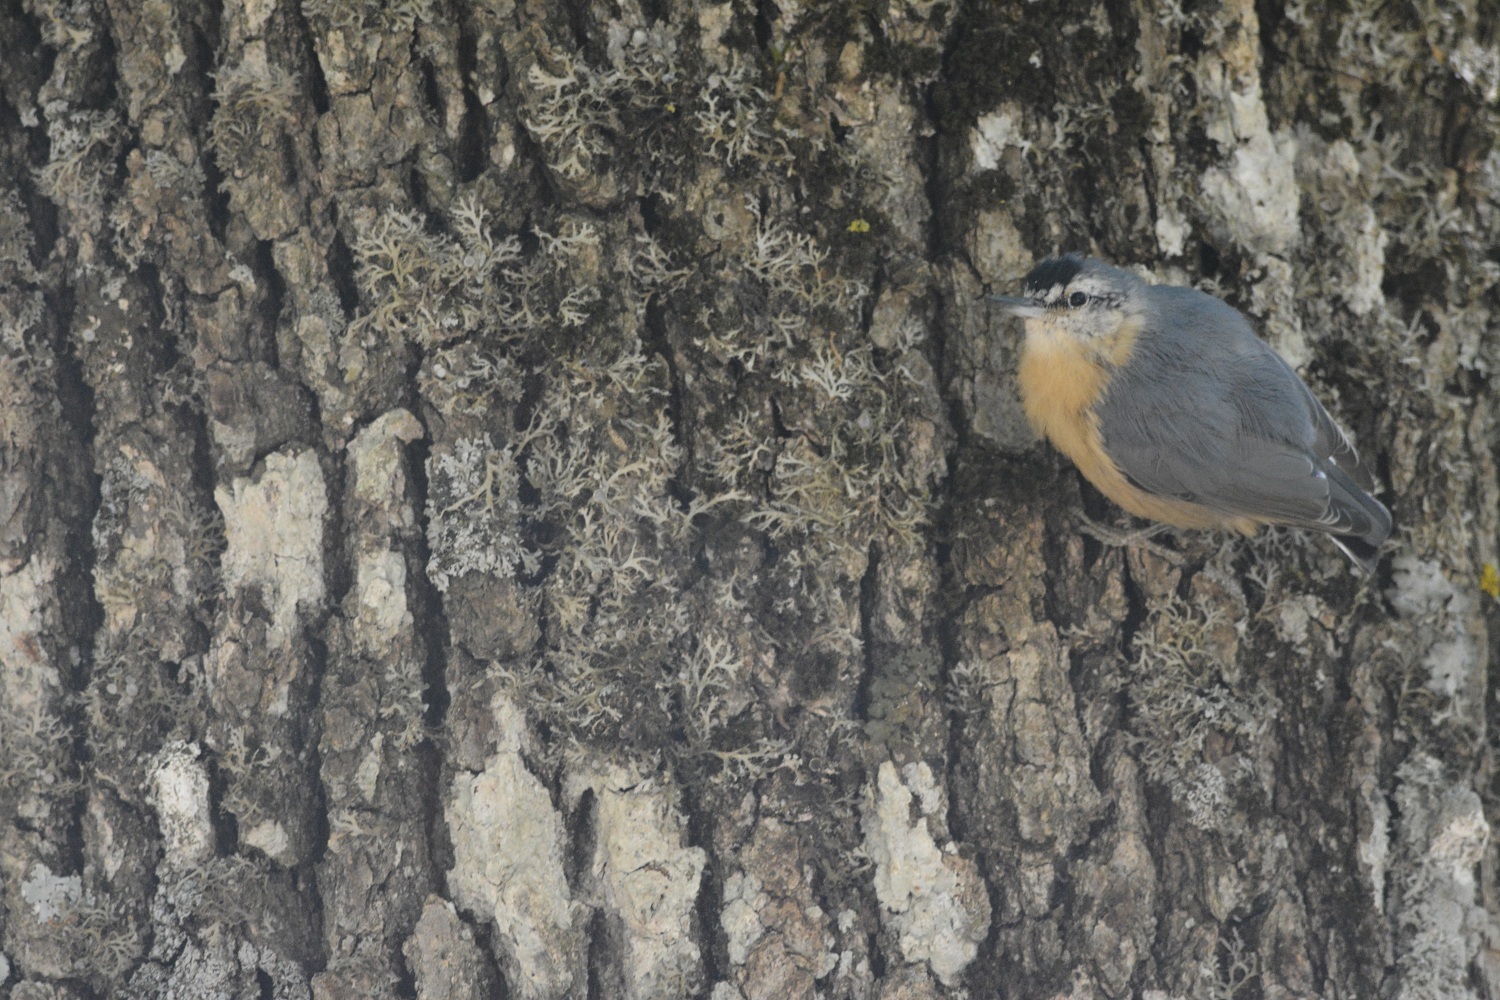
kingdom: Animalia
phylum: Chordata
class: Aves
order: Passeriformes
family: Sittidae
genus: Sitta
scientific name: Sitta ledanti
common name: Algerian nuthatch
